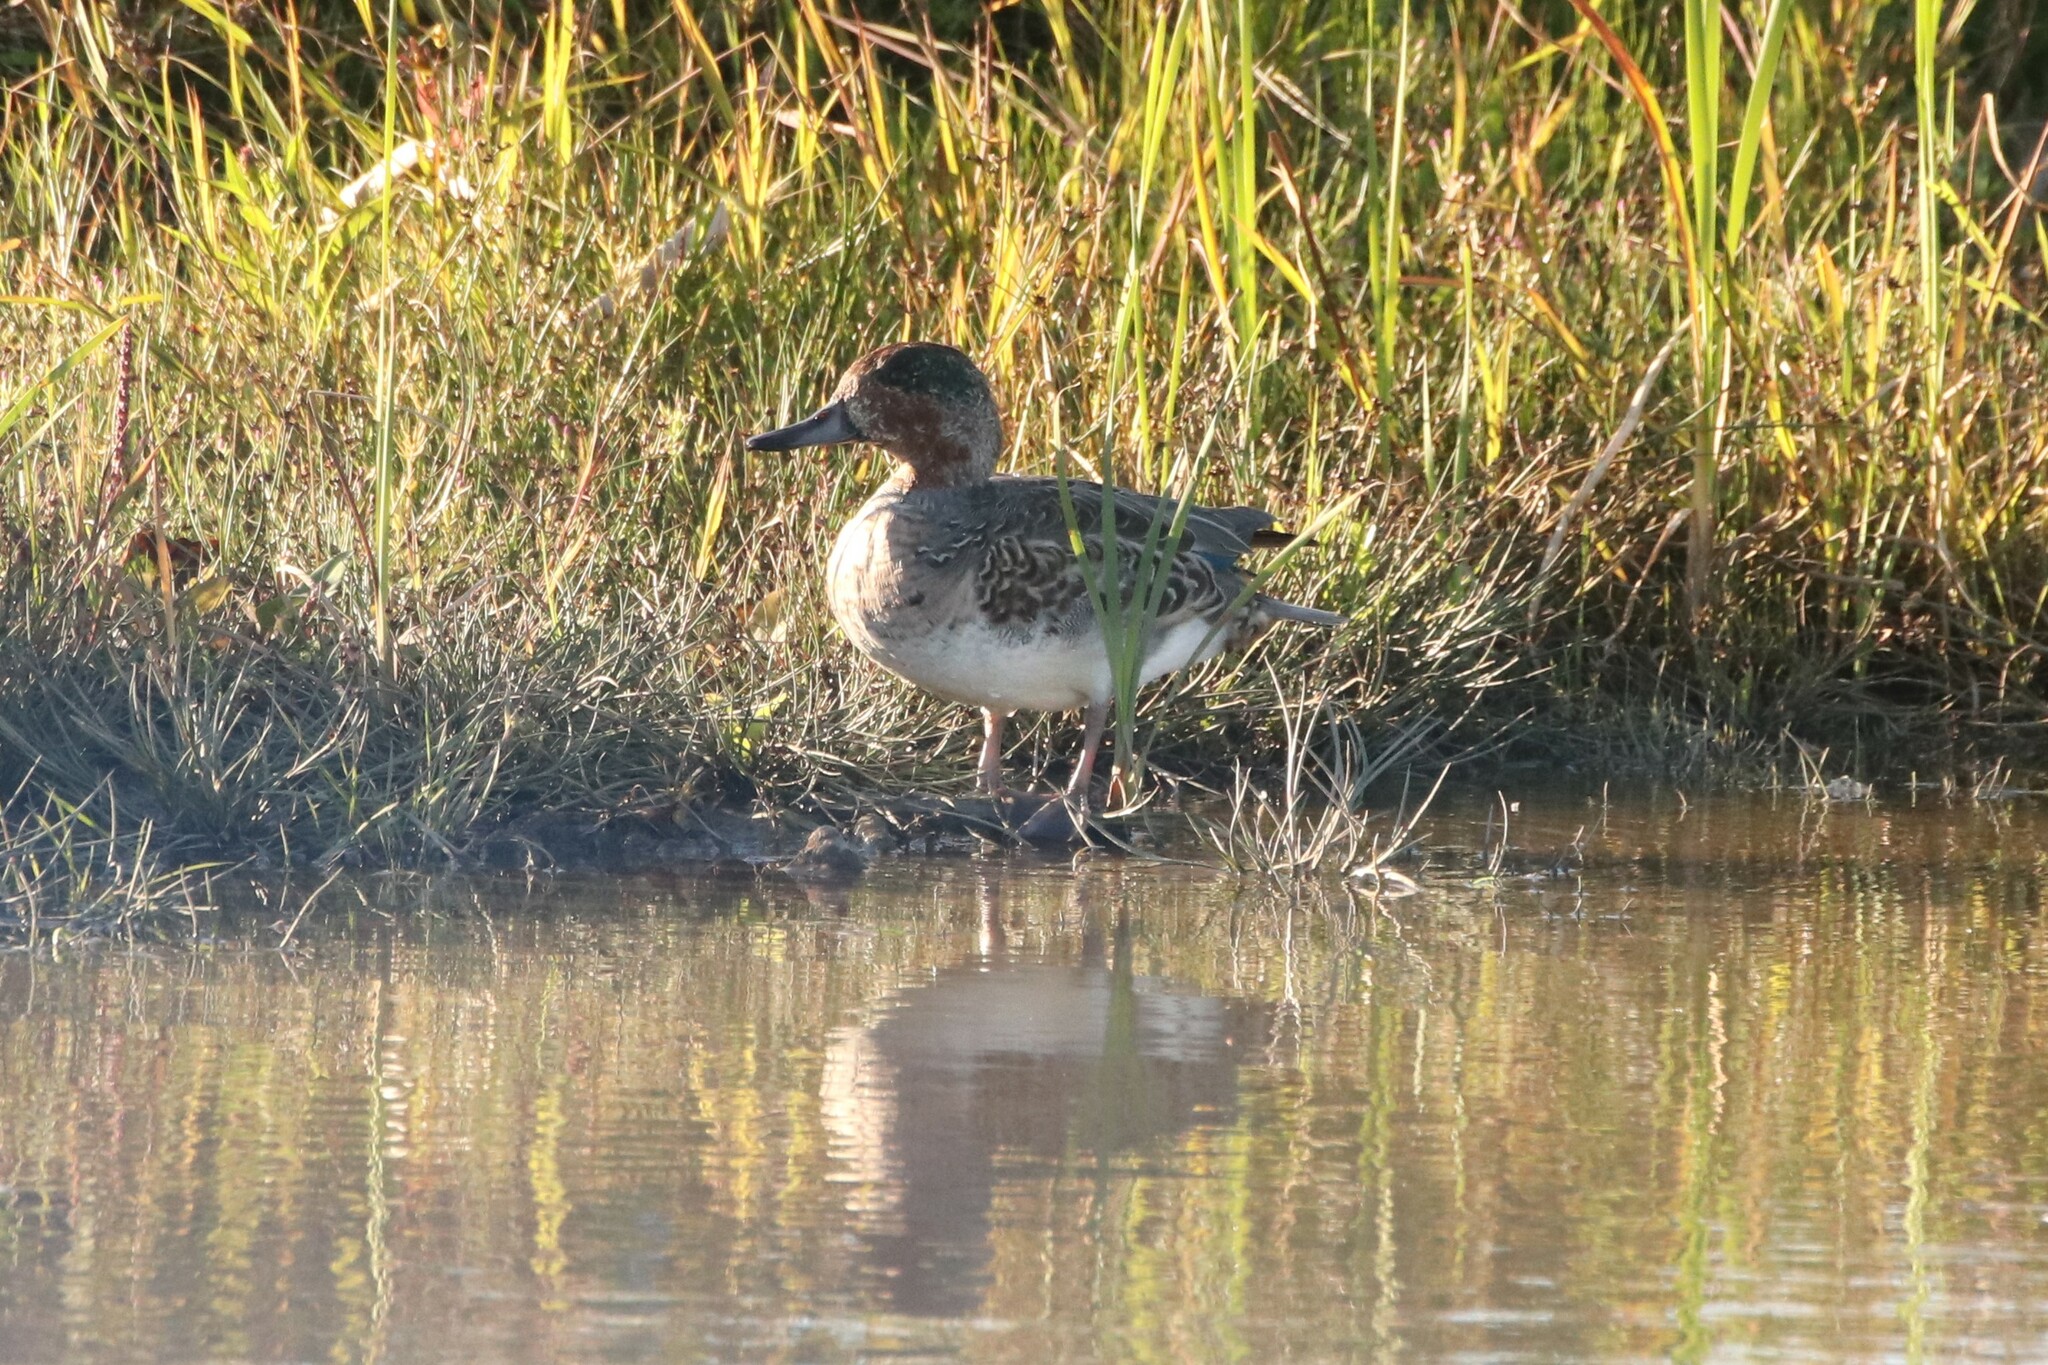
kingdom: Animalia
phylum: Chordata
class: Aves
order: Anseriformes
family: Anatidae
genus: Anas
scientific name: Anas crecca
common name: Eurasian teal
